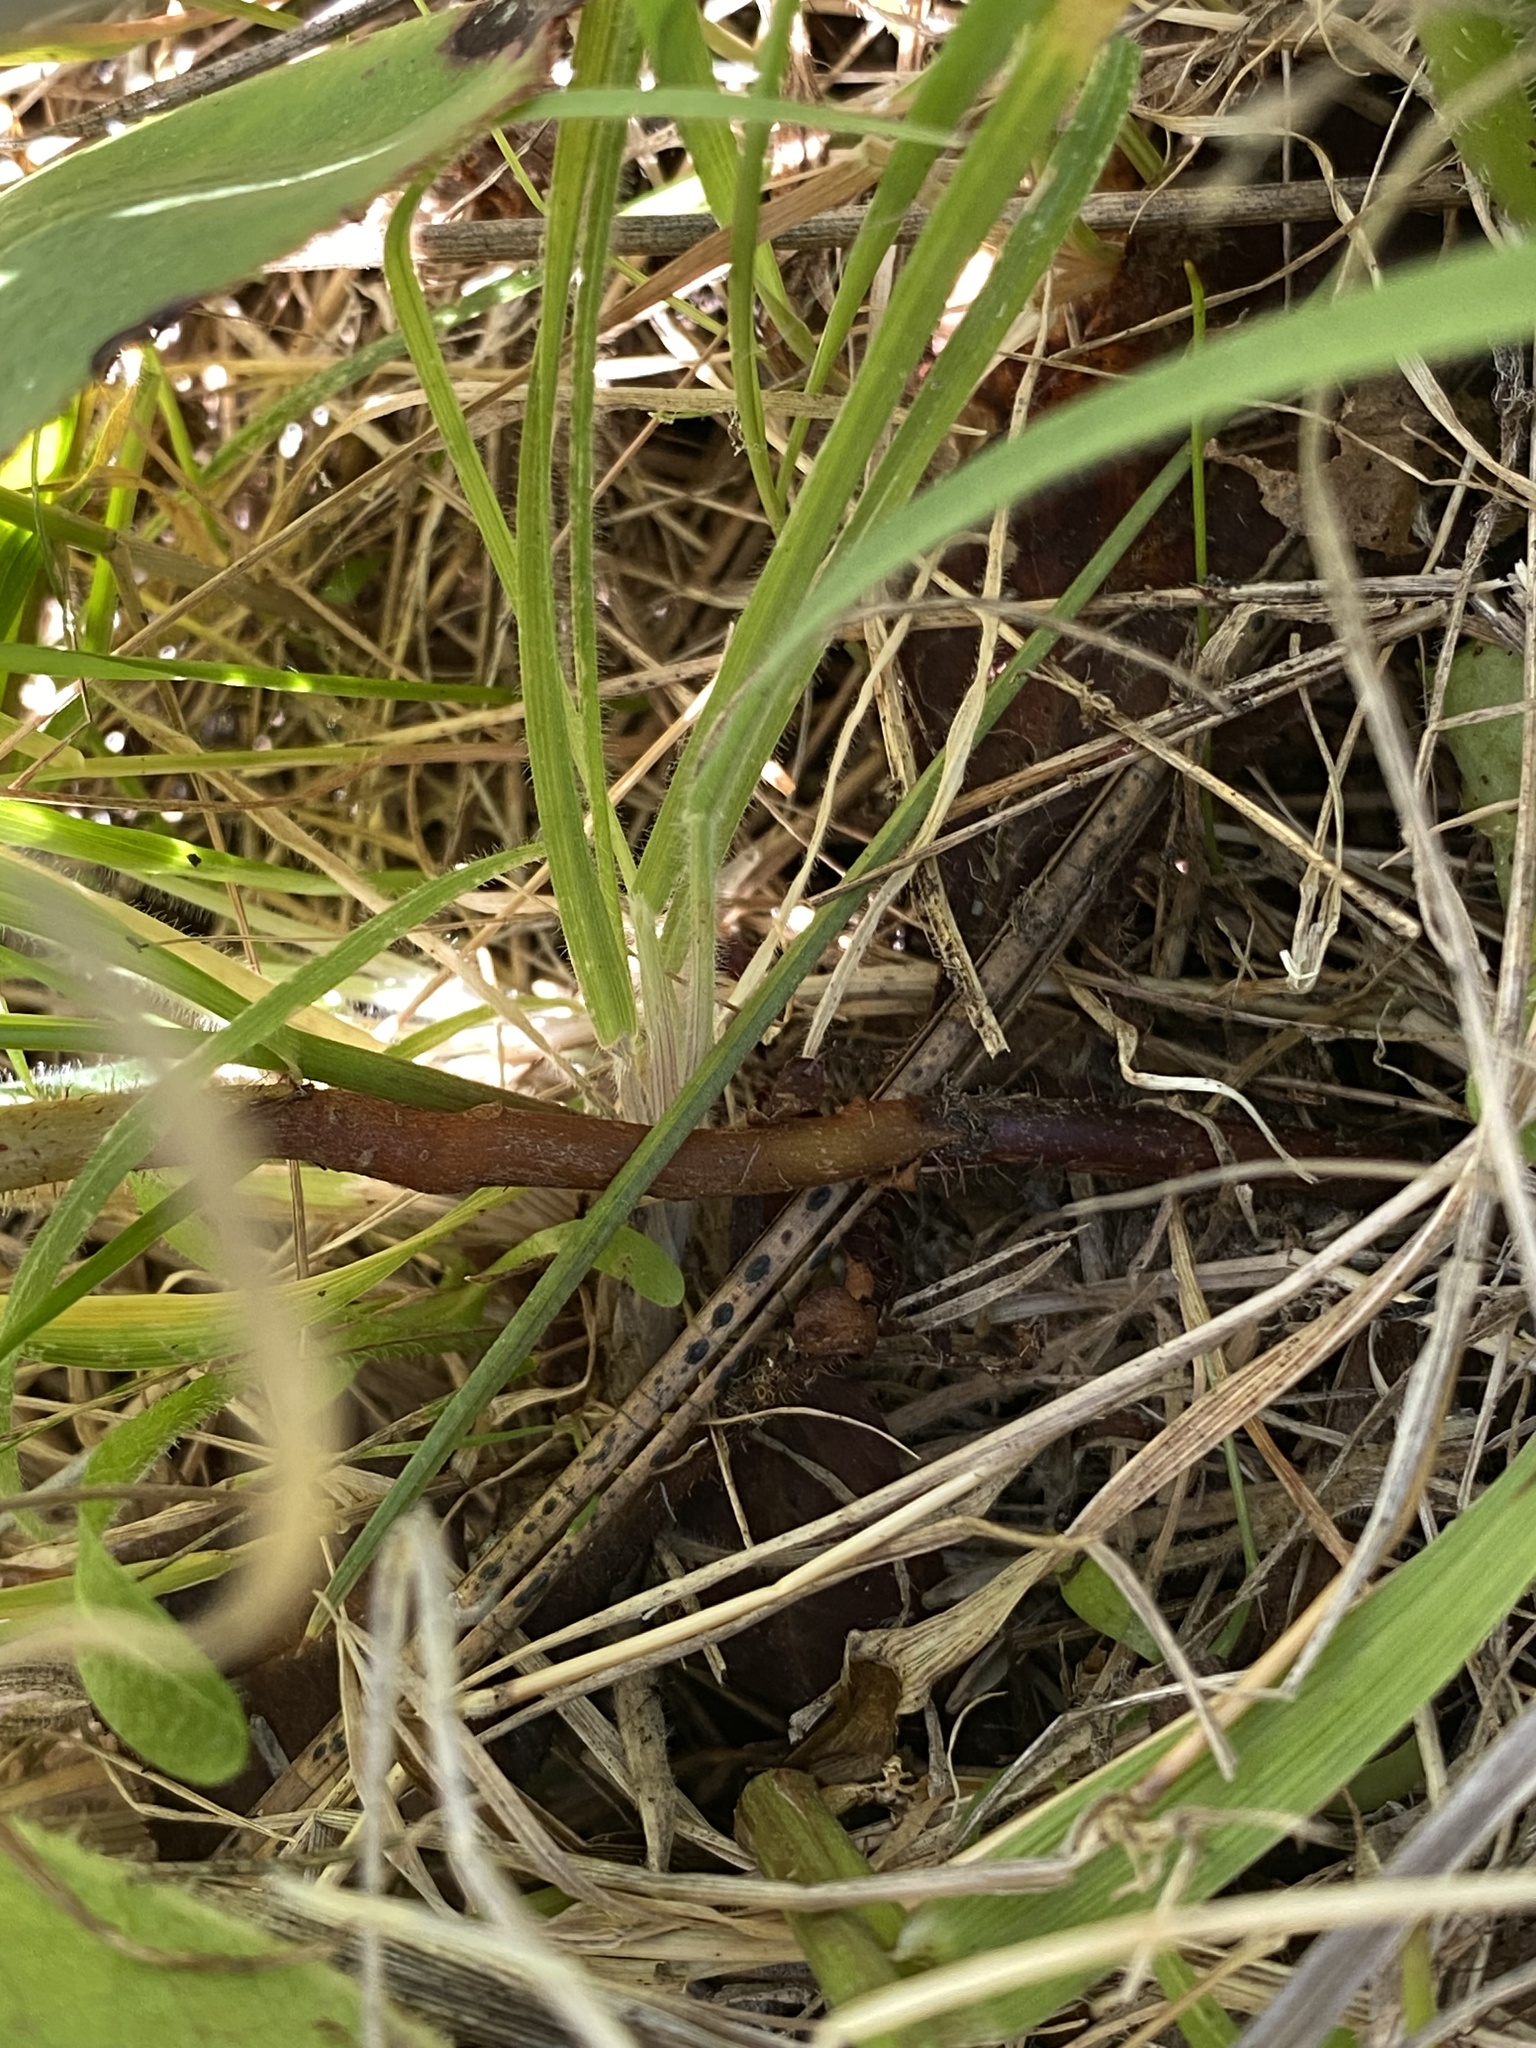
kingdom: Plantae
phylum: Tracheophyta
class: Magnoliopsida
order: Ericales
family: Ericaceae
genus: Arbutus
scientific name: Arbutus menziesii
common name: Pacific madrone
